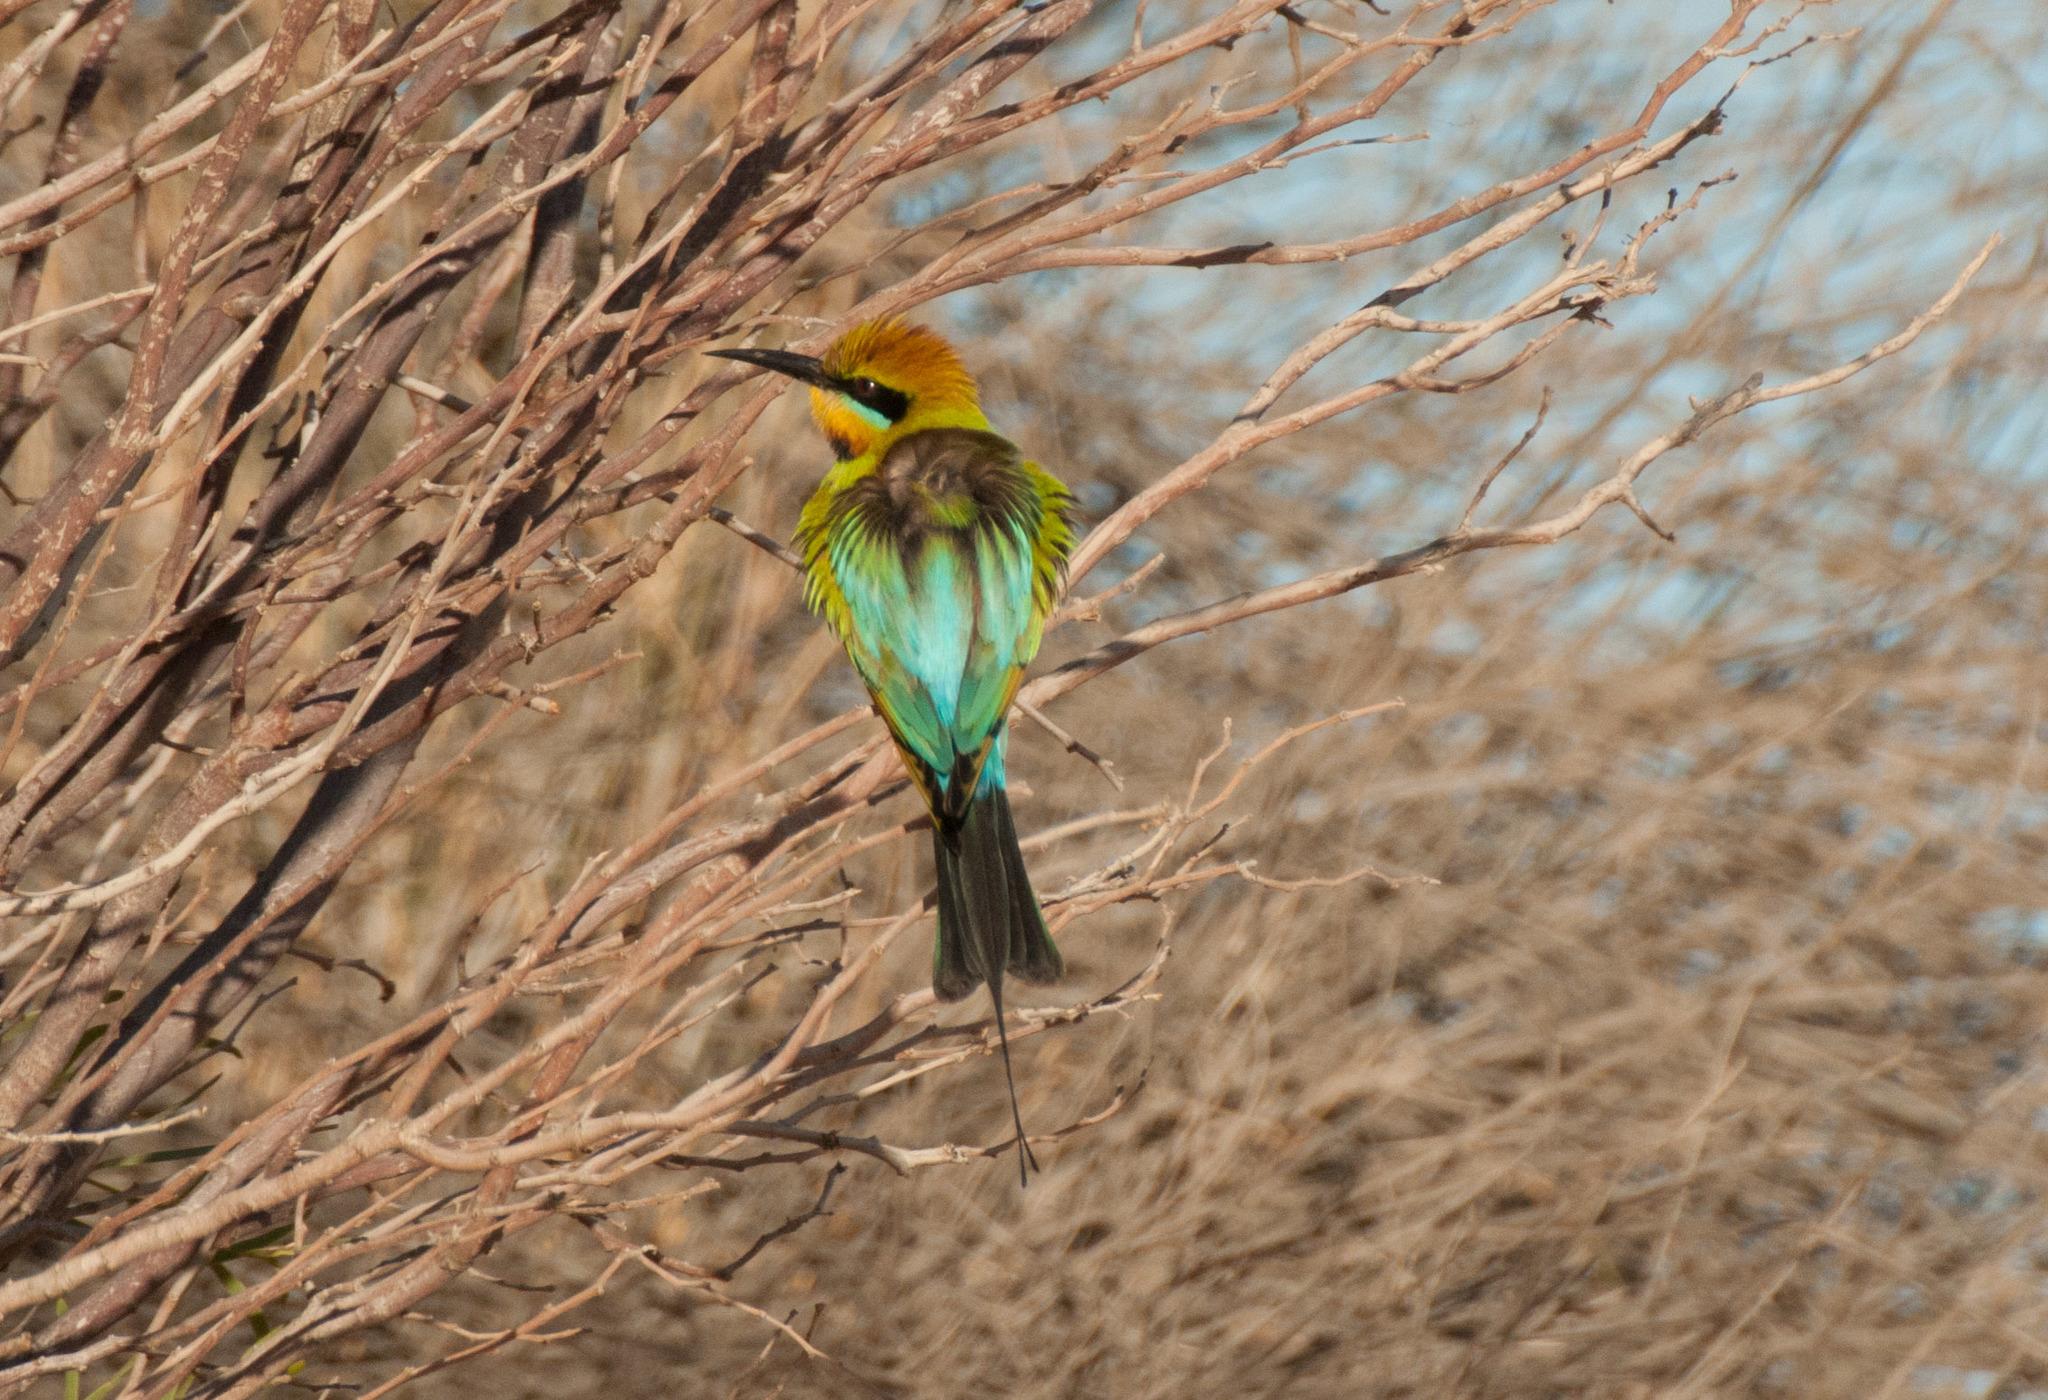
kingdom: Animalia
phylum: Chordata
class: Aves
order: Coraciiformes
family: Meropidae
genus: Merops
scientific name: Merops ornatus
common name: Rainbow bee-eater
